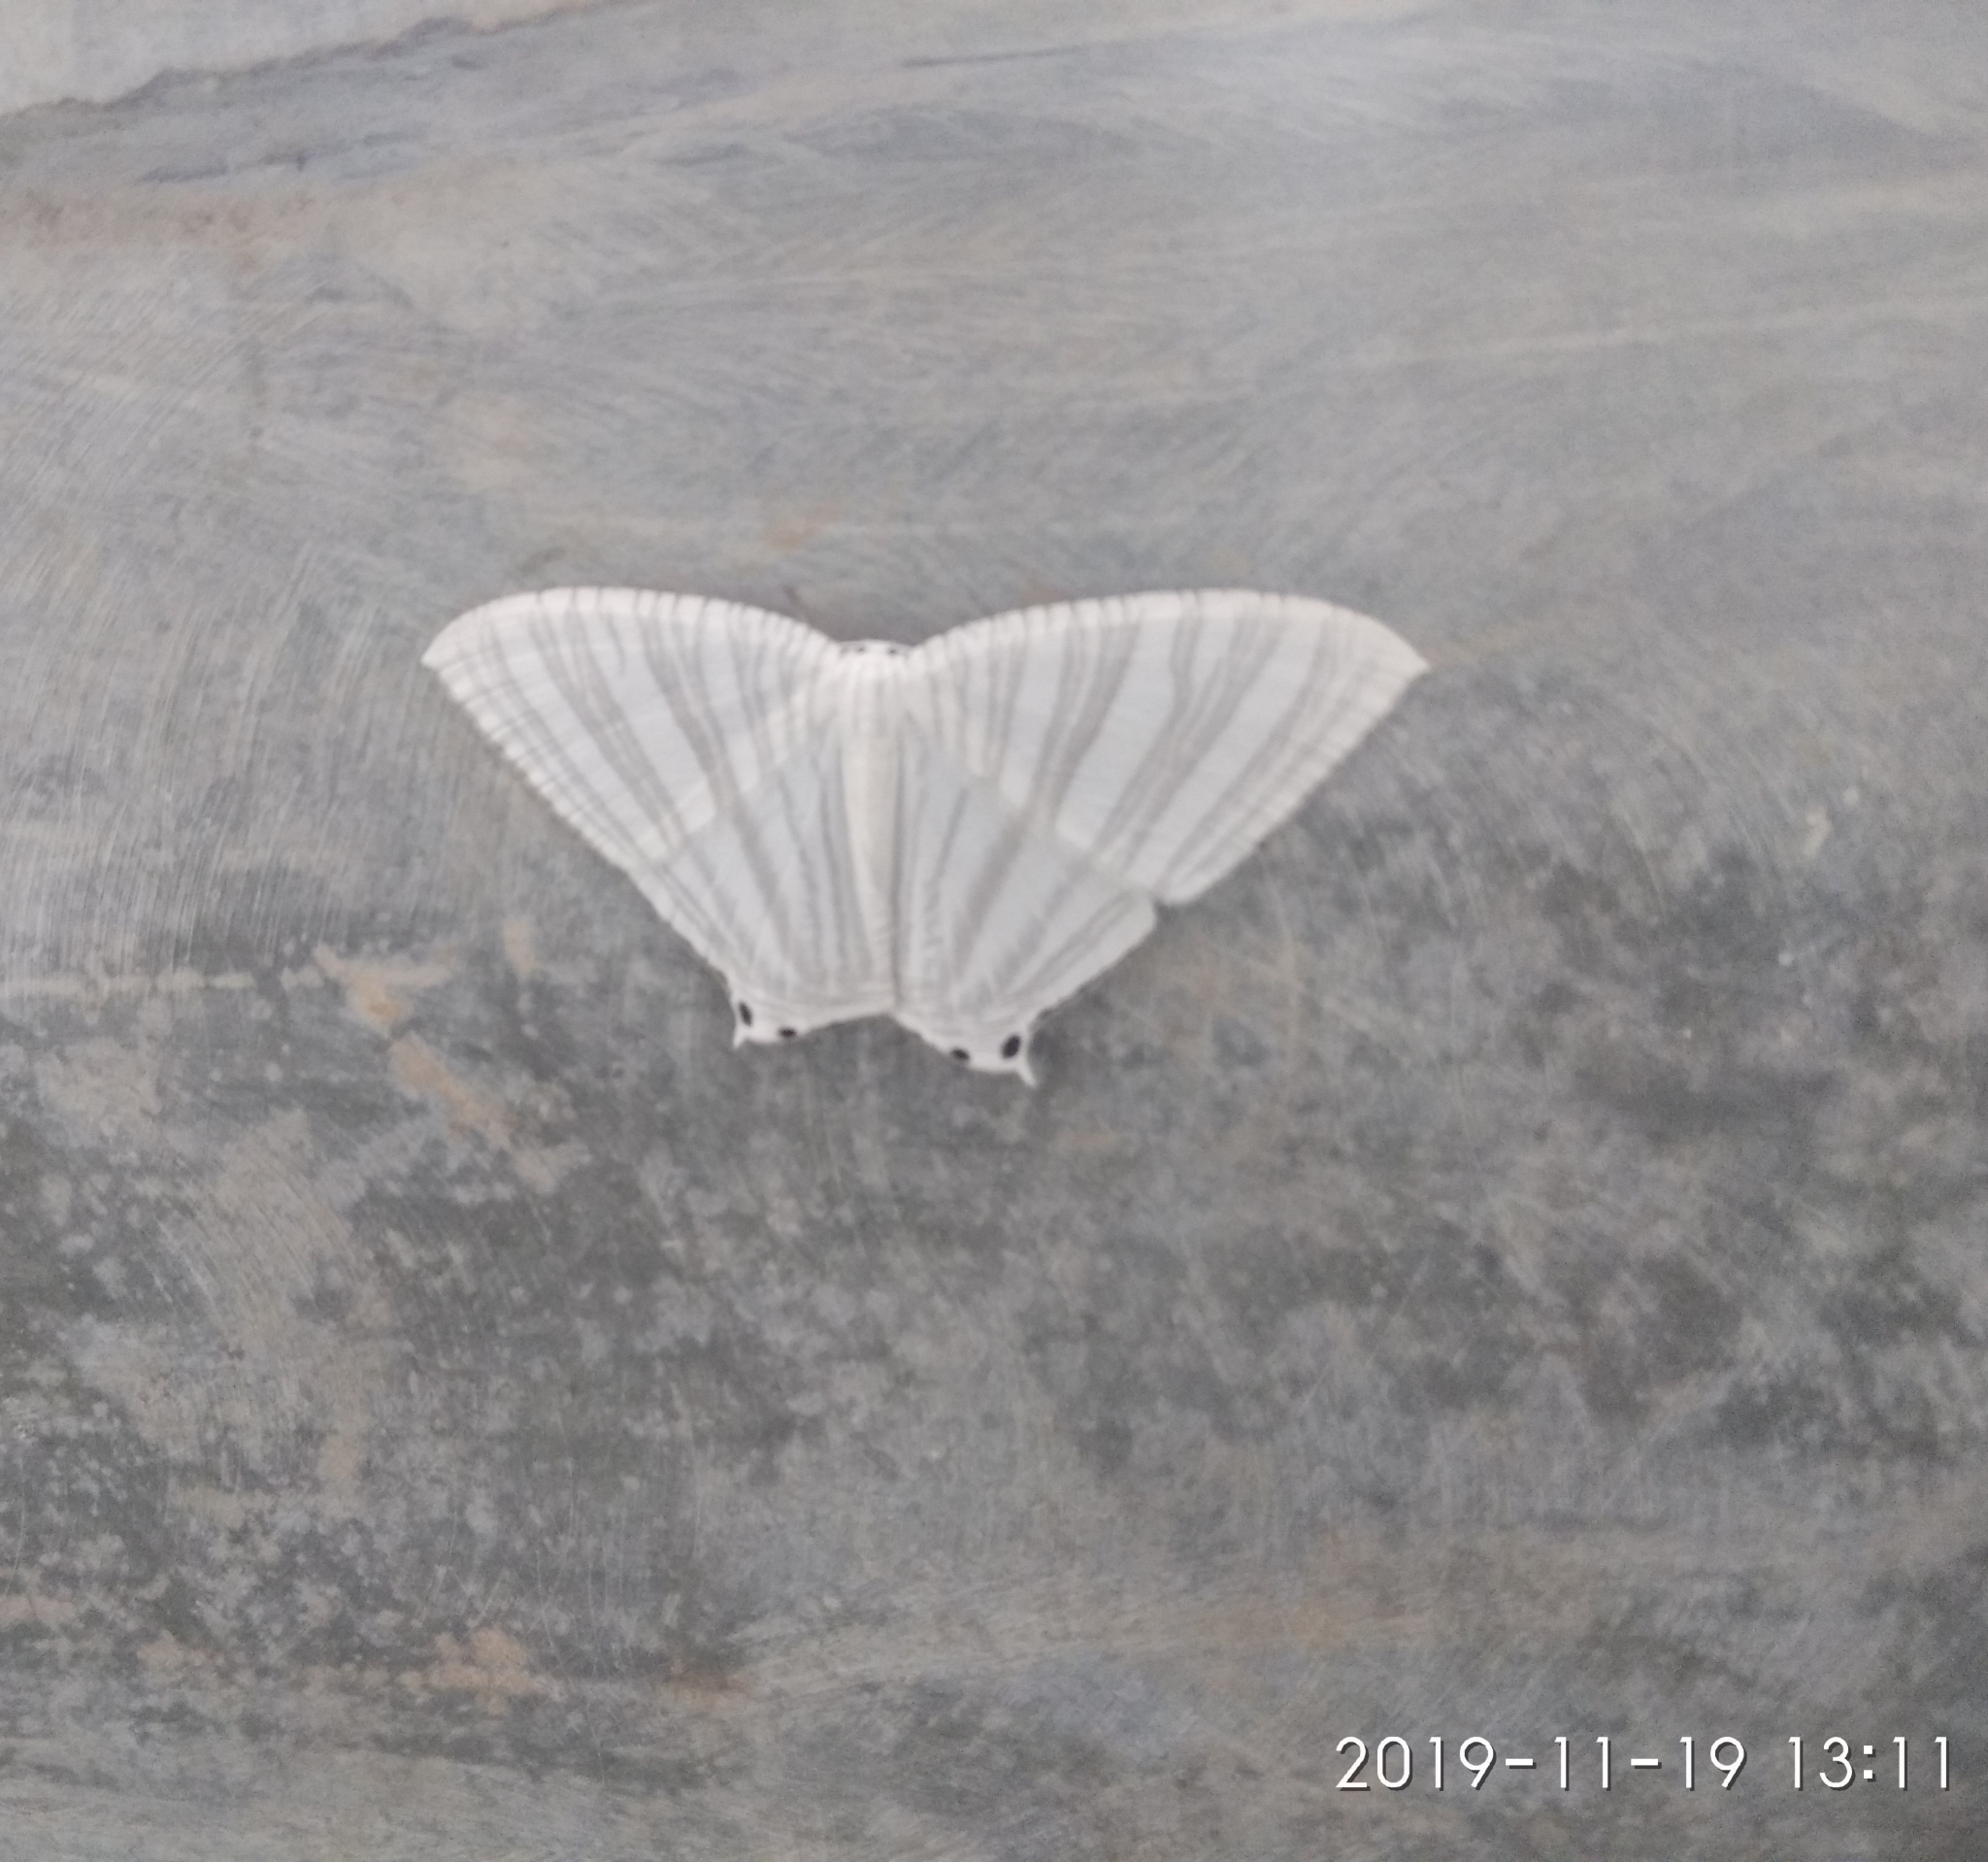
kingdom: Animalia
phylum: Arthropoda
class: Insecta
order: Lepidoptera
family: Uraniidae
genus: Pseudomicronia
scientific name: Pseudomicronia advocataria
